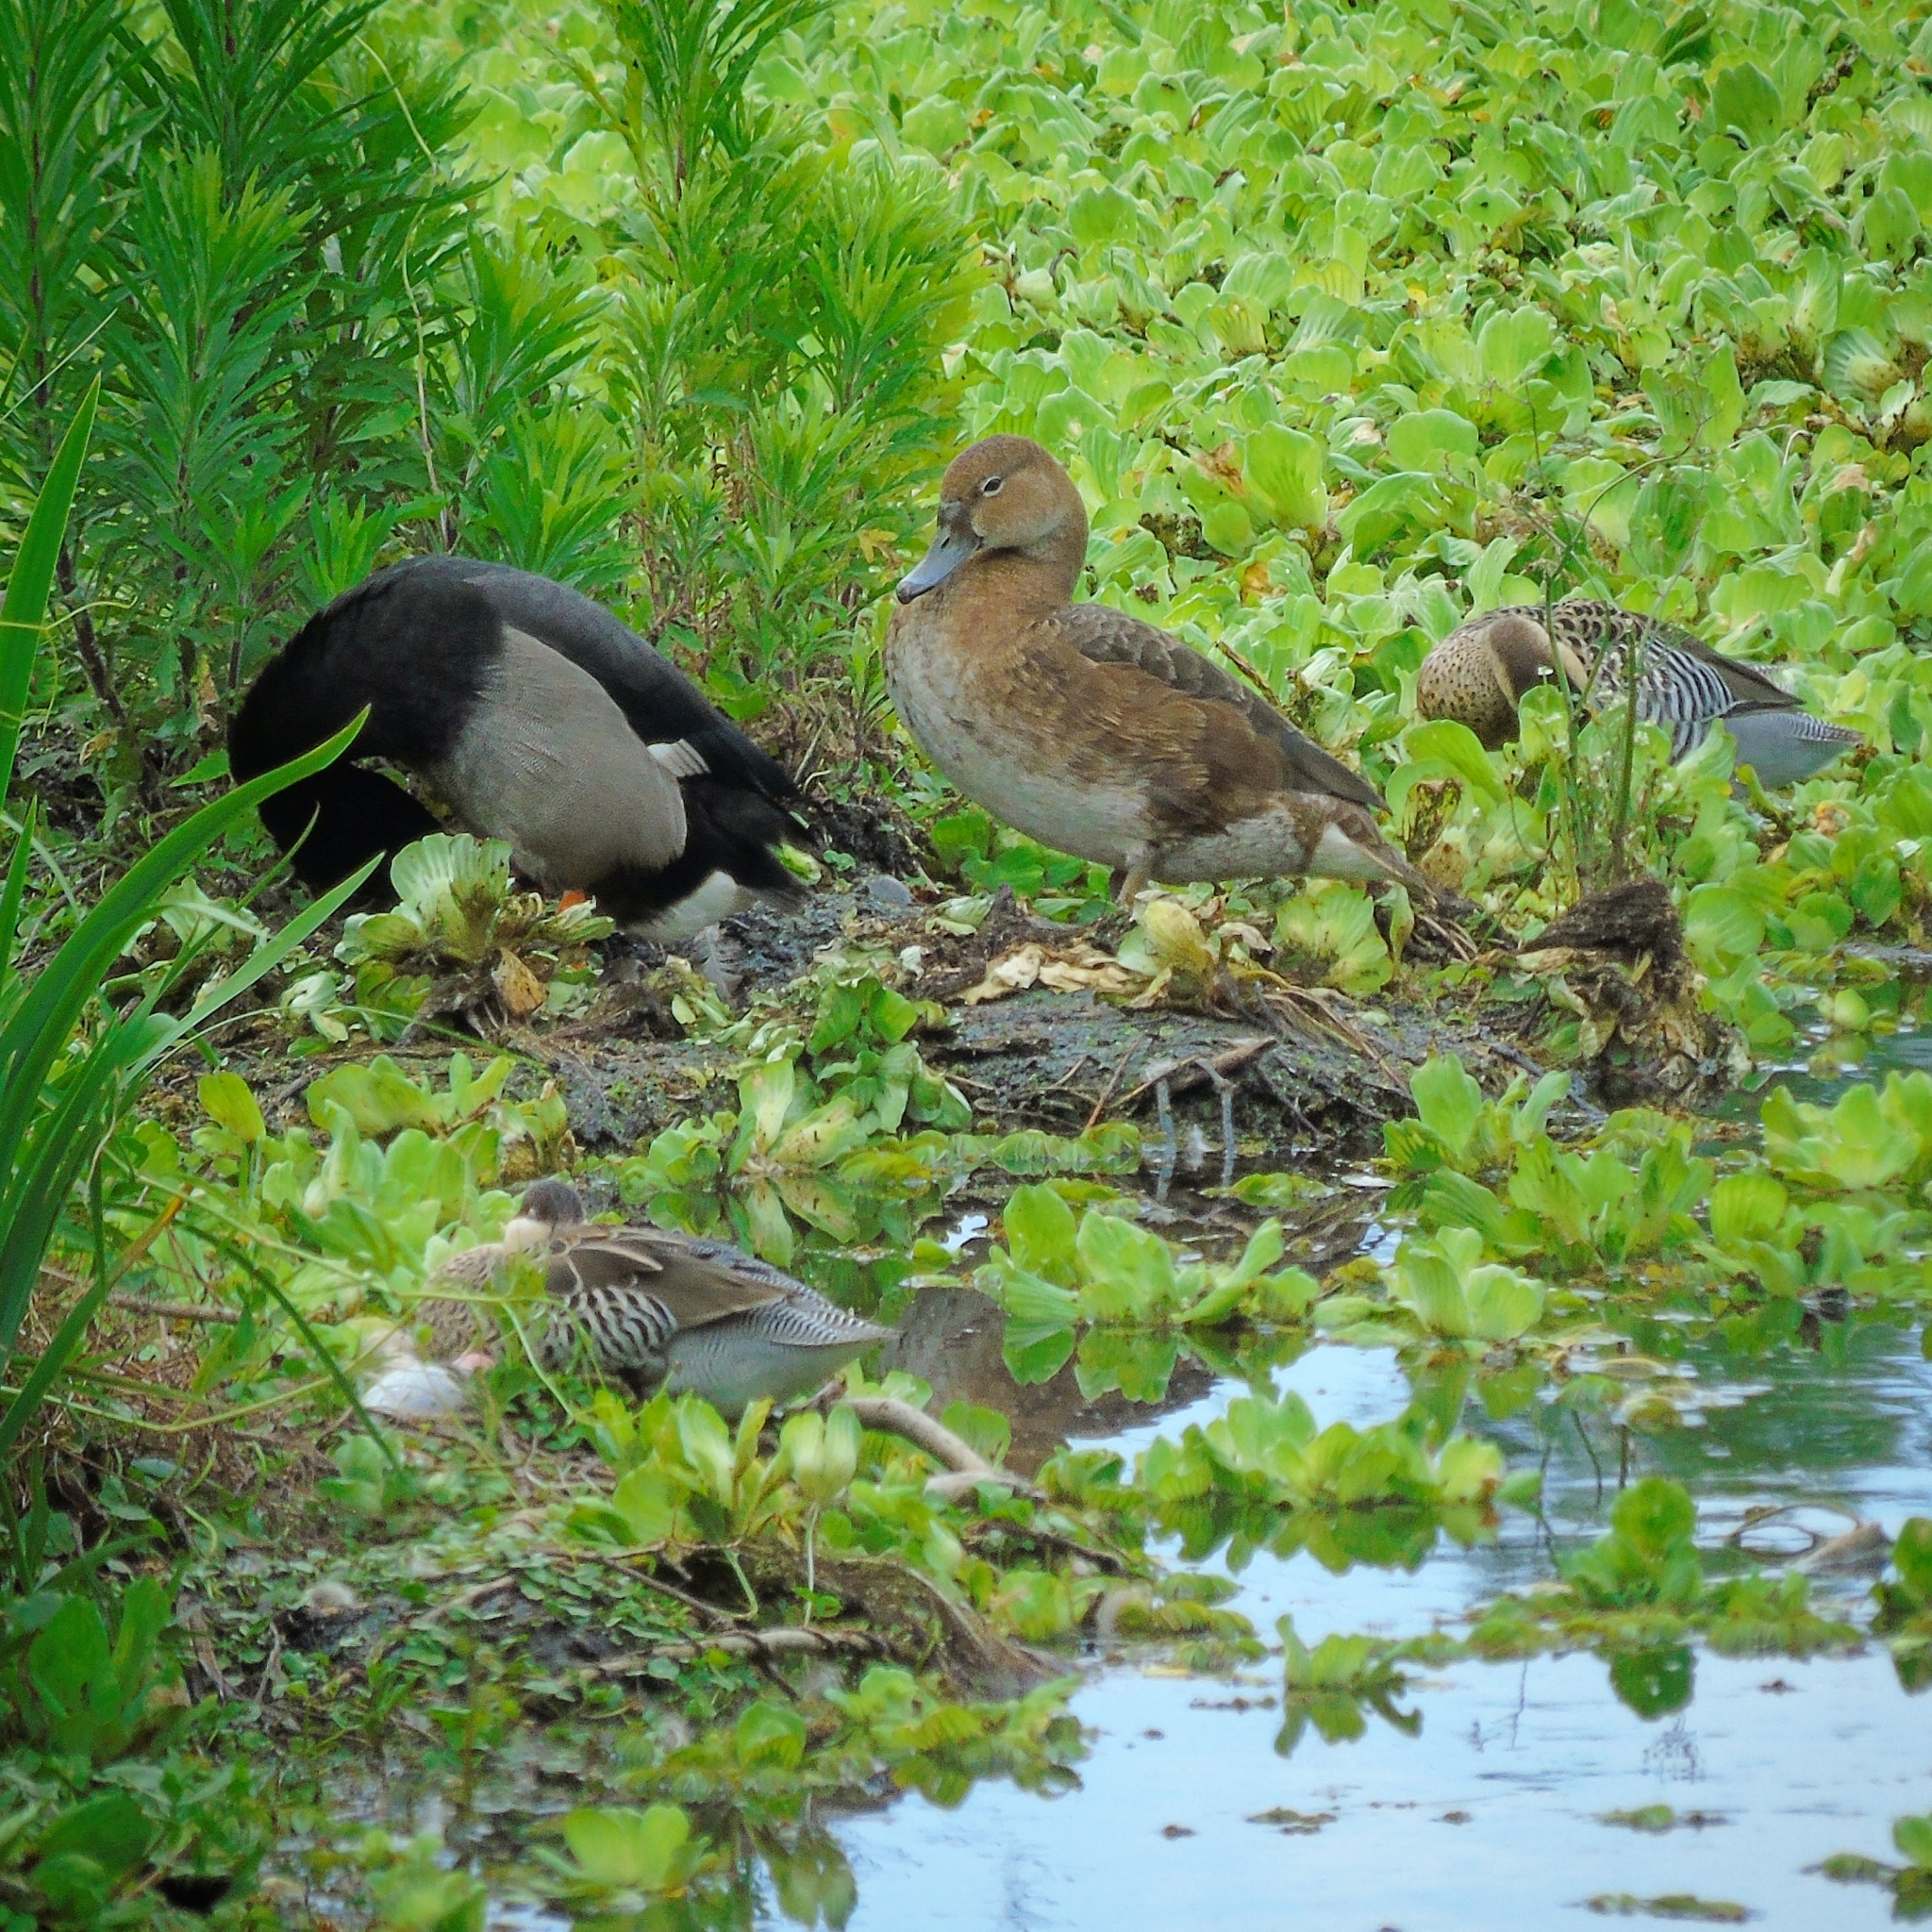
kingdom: Animalia
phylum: Chordata
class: Aves
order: Anseriformes
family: Anatidae
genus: Netta
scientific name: Netta peposaca
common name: Rosy-billed pochard
